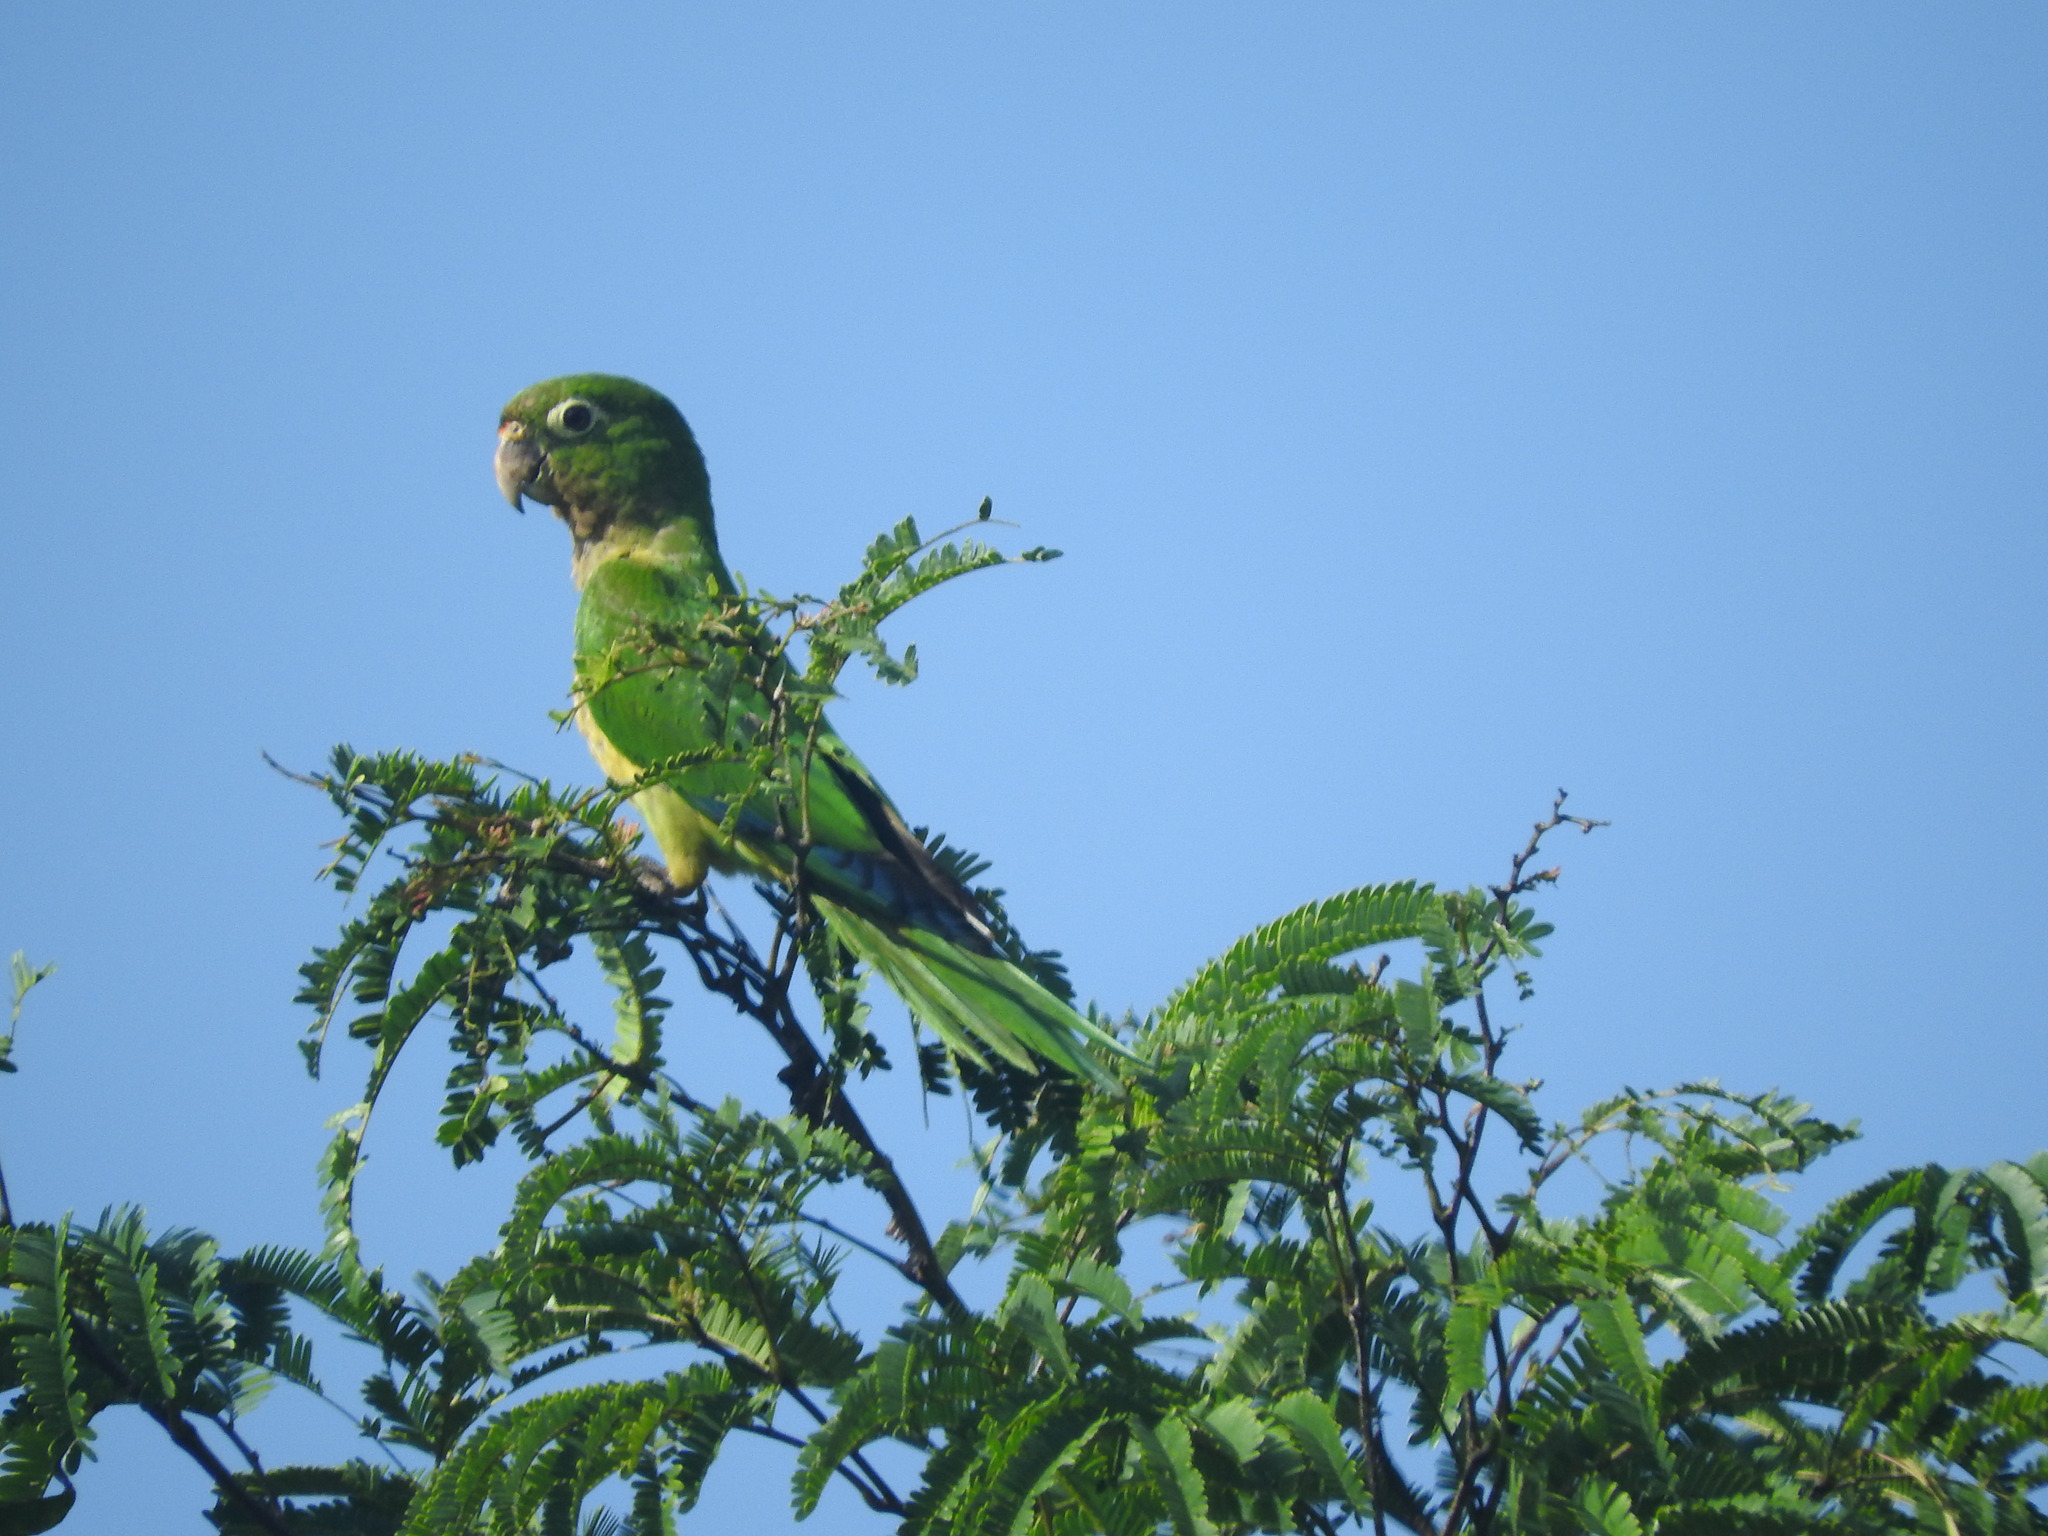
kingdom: Animalia
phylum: Chordata
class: Aves
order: Psittaciformes
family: Psittacidae
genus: Aratinga
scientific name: Aratinga nana
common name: Olive-throated parakeet
